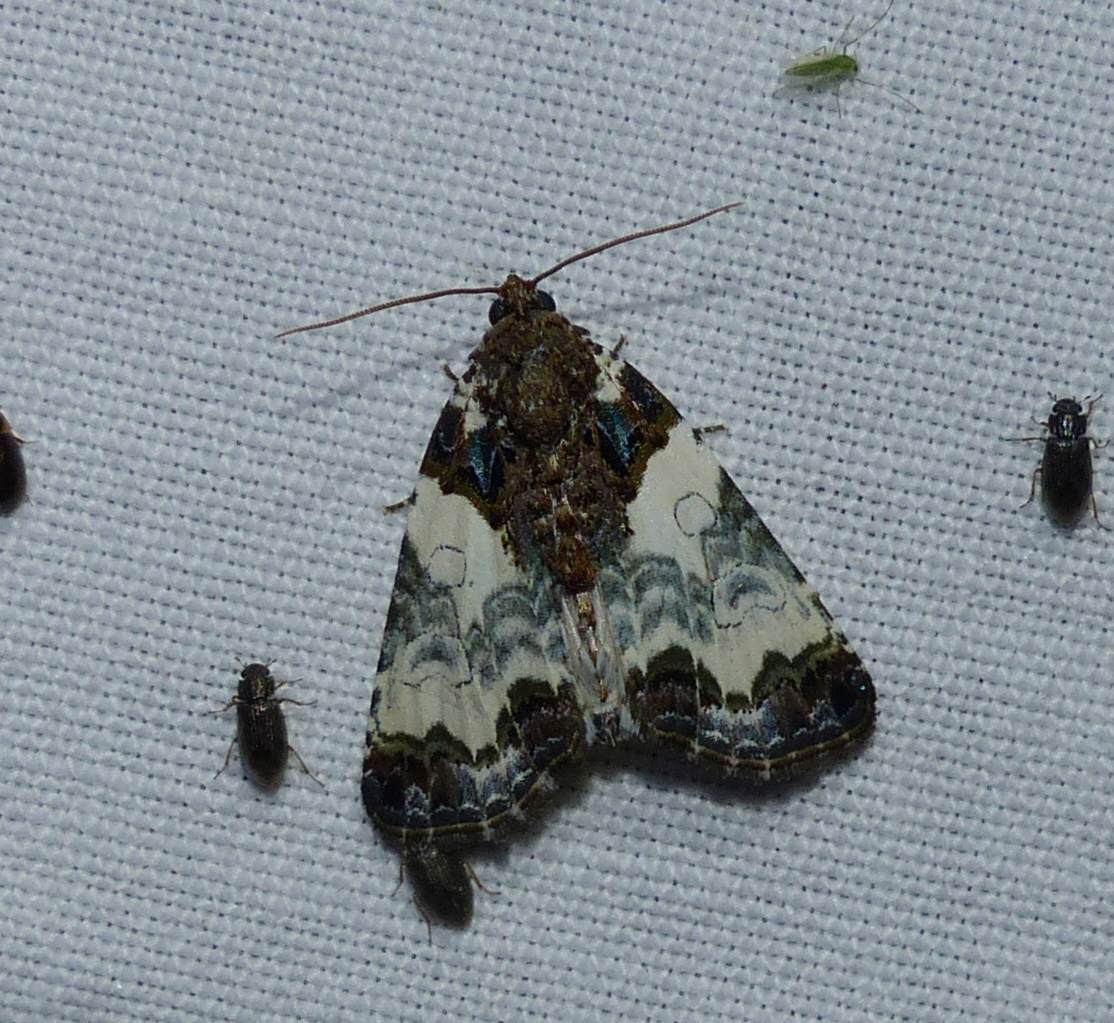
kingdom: Animalia
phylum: Arthropoda
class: Insecta
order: Lepidoptera
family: Noctuidae
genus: Cerma
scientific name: Cerma cerintha
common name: Tufted bird-dropping moth
